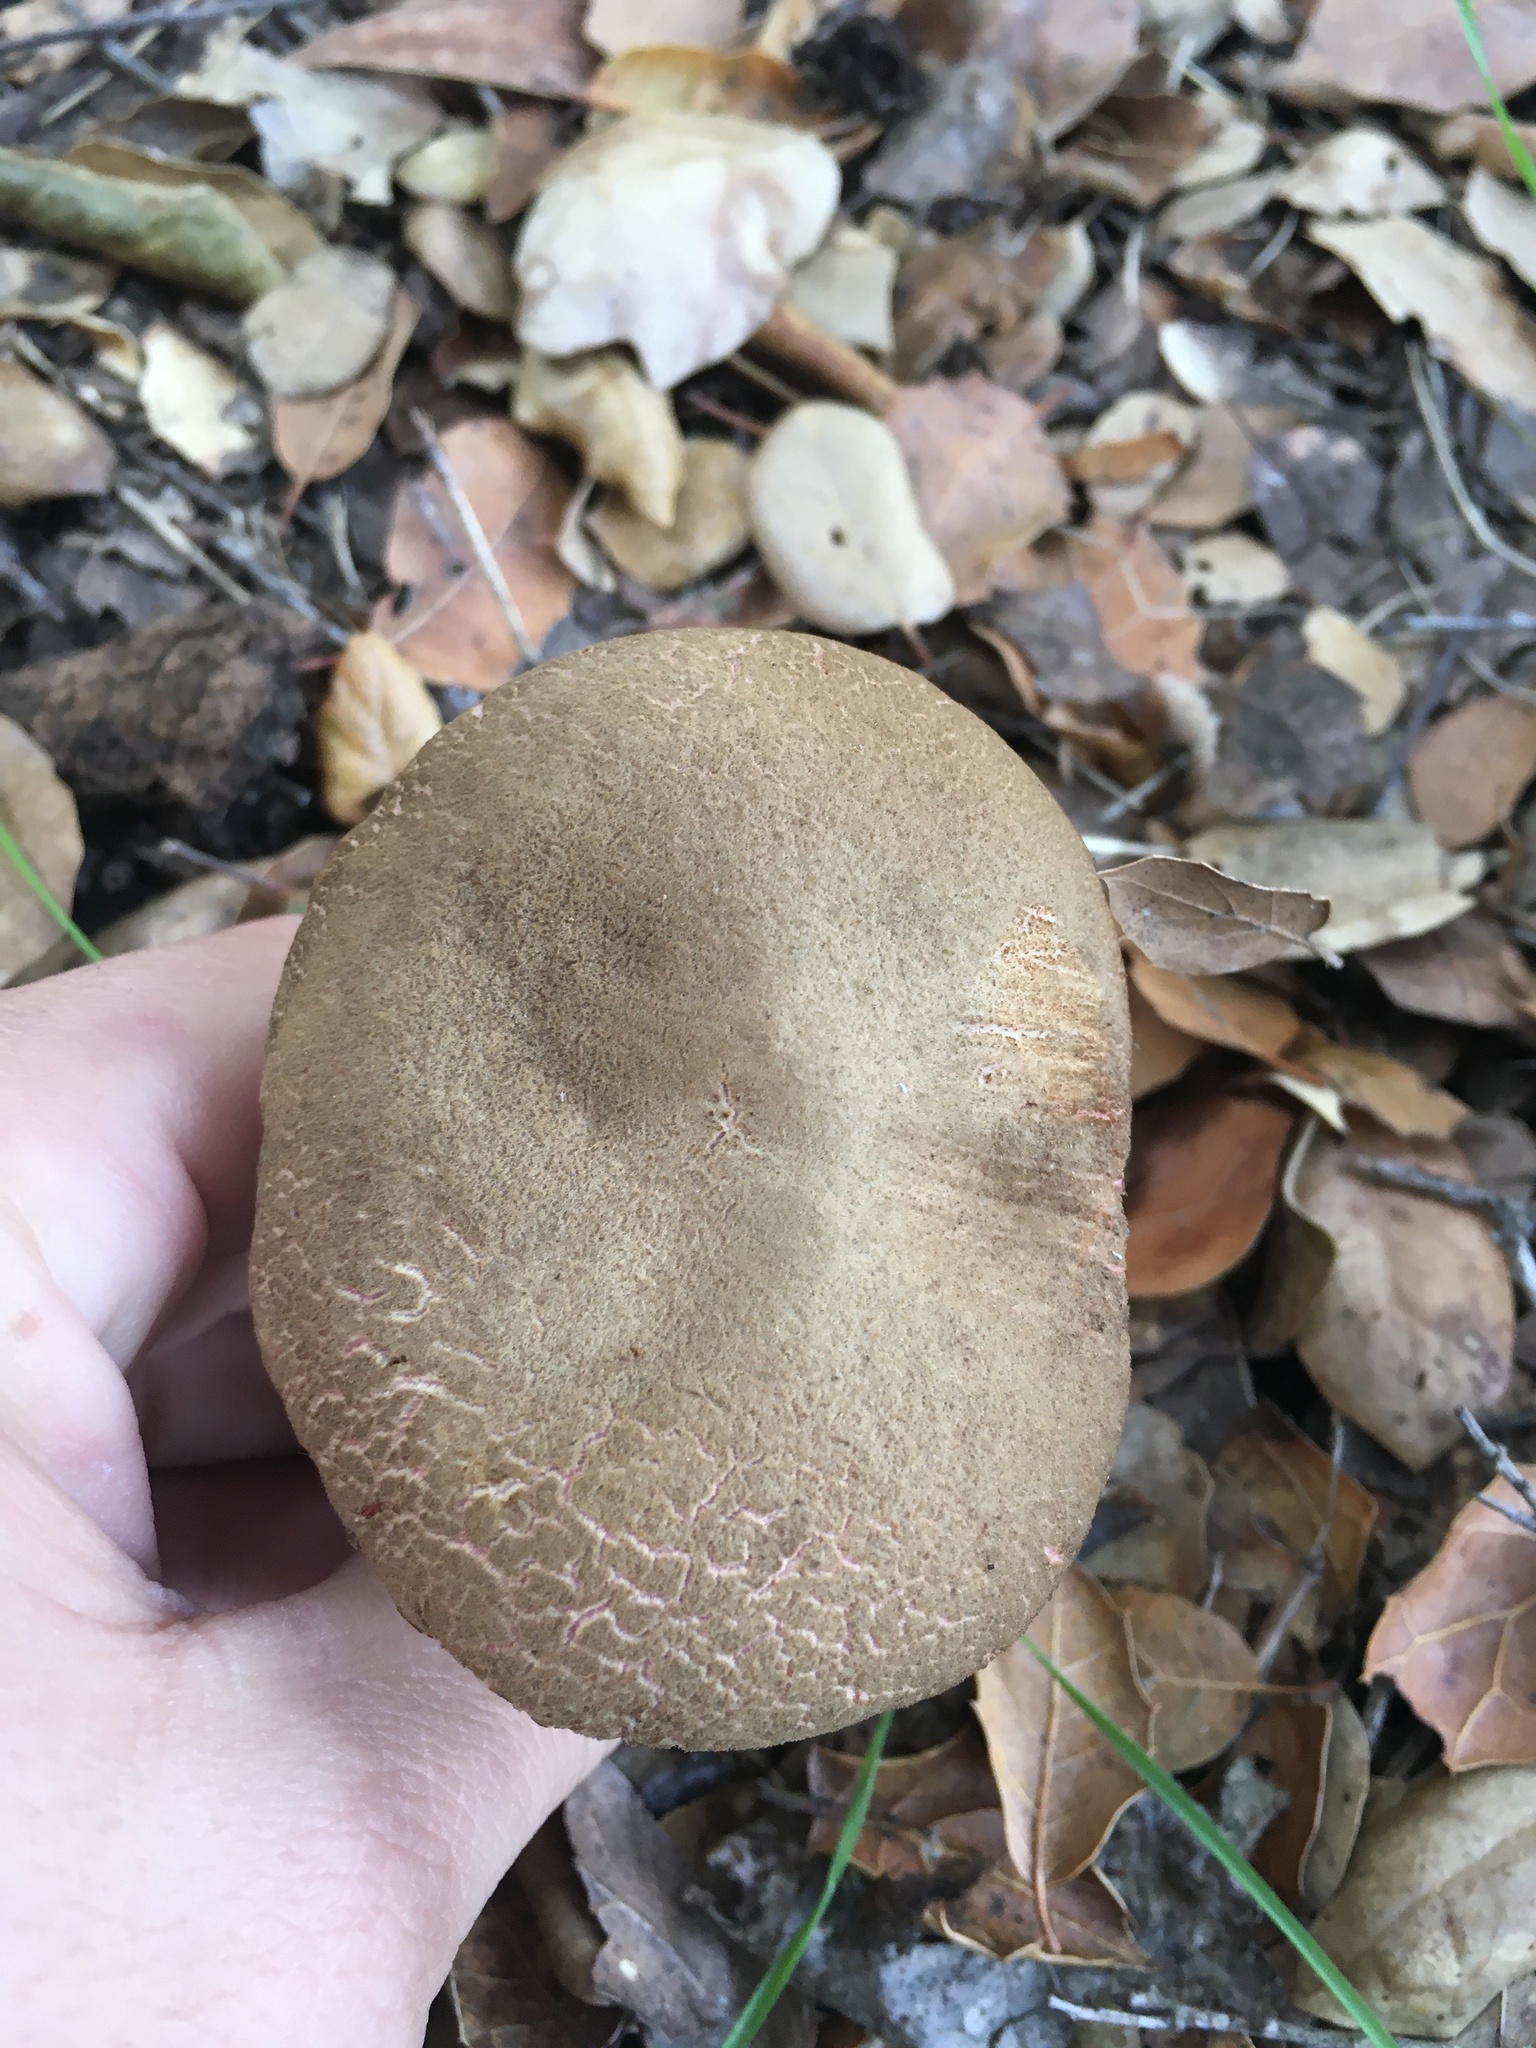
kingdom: Fungi
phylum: Basidiomycota
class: Agaricomycetes
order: Boletales
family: Boletaceae
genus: Xerocomellus
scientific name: Xerocomellus dryophilus
